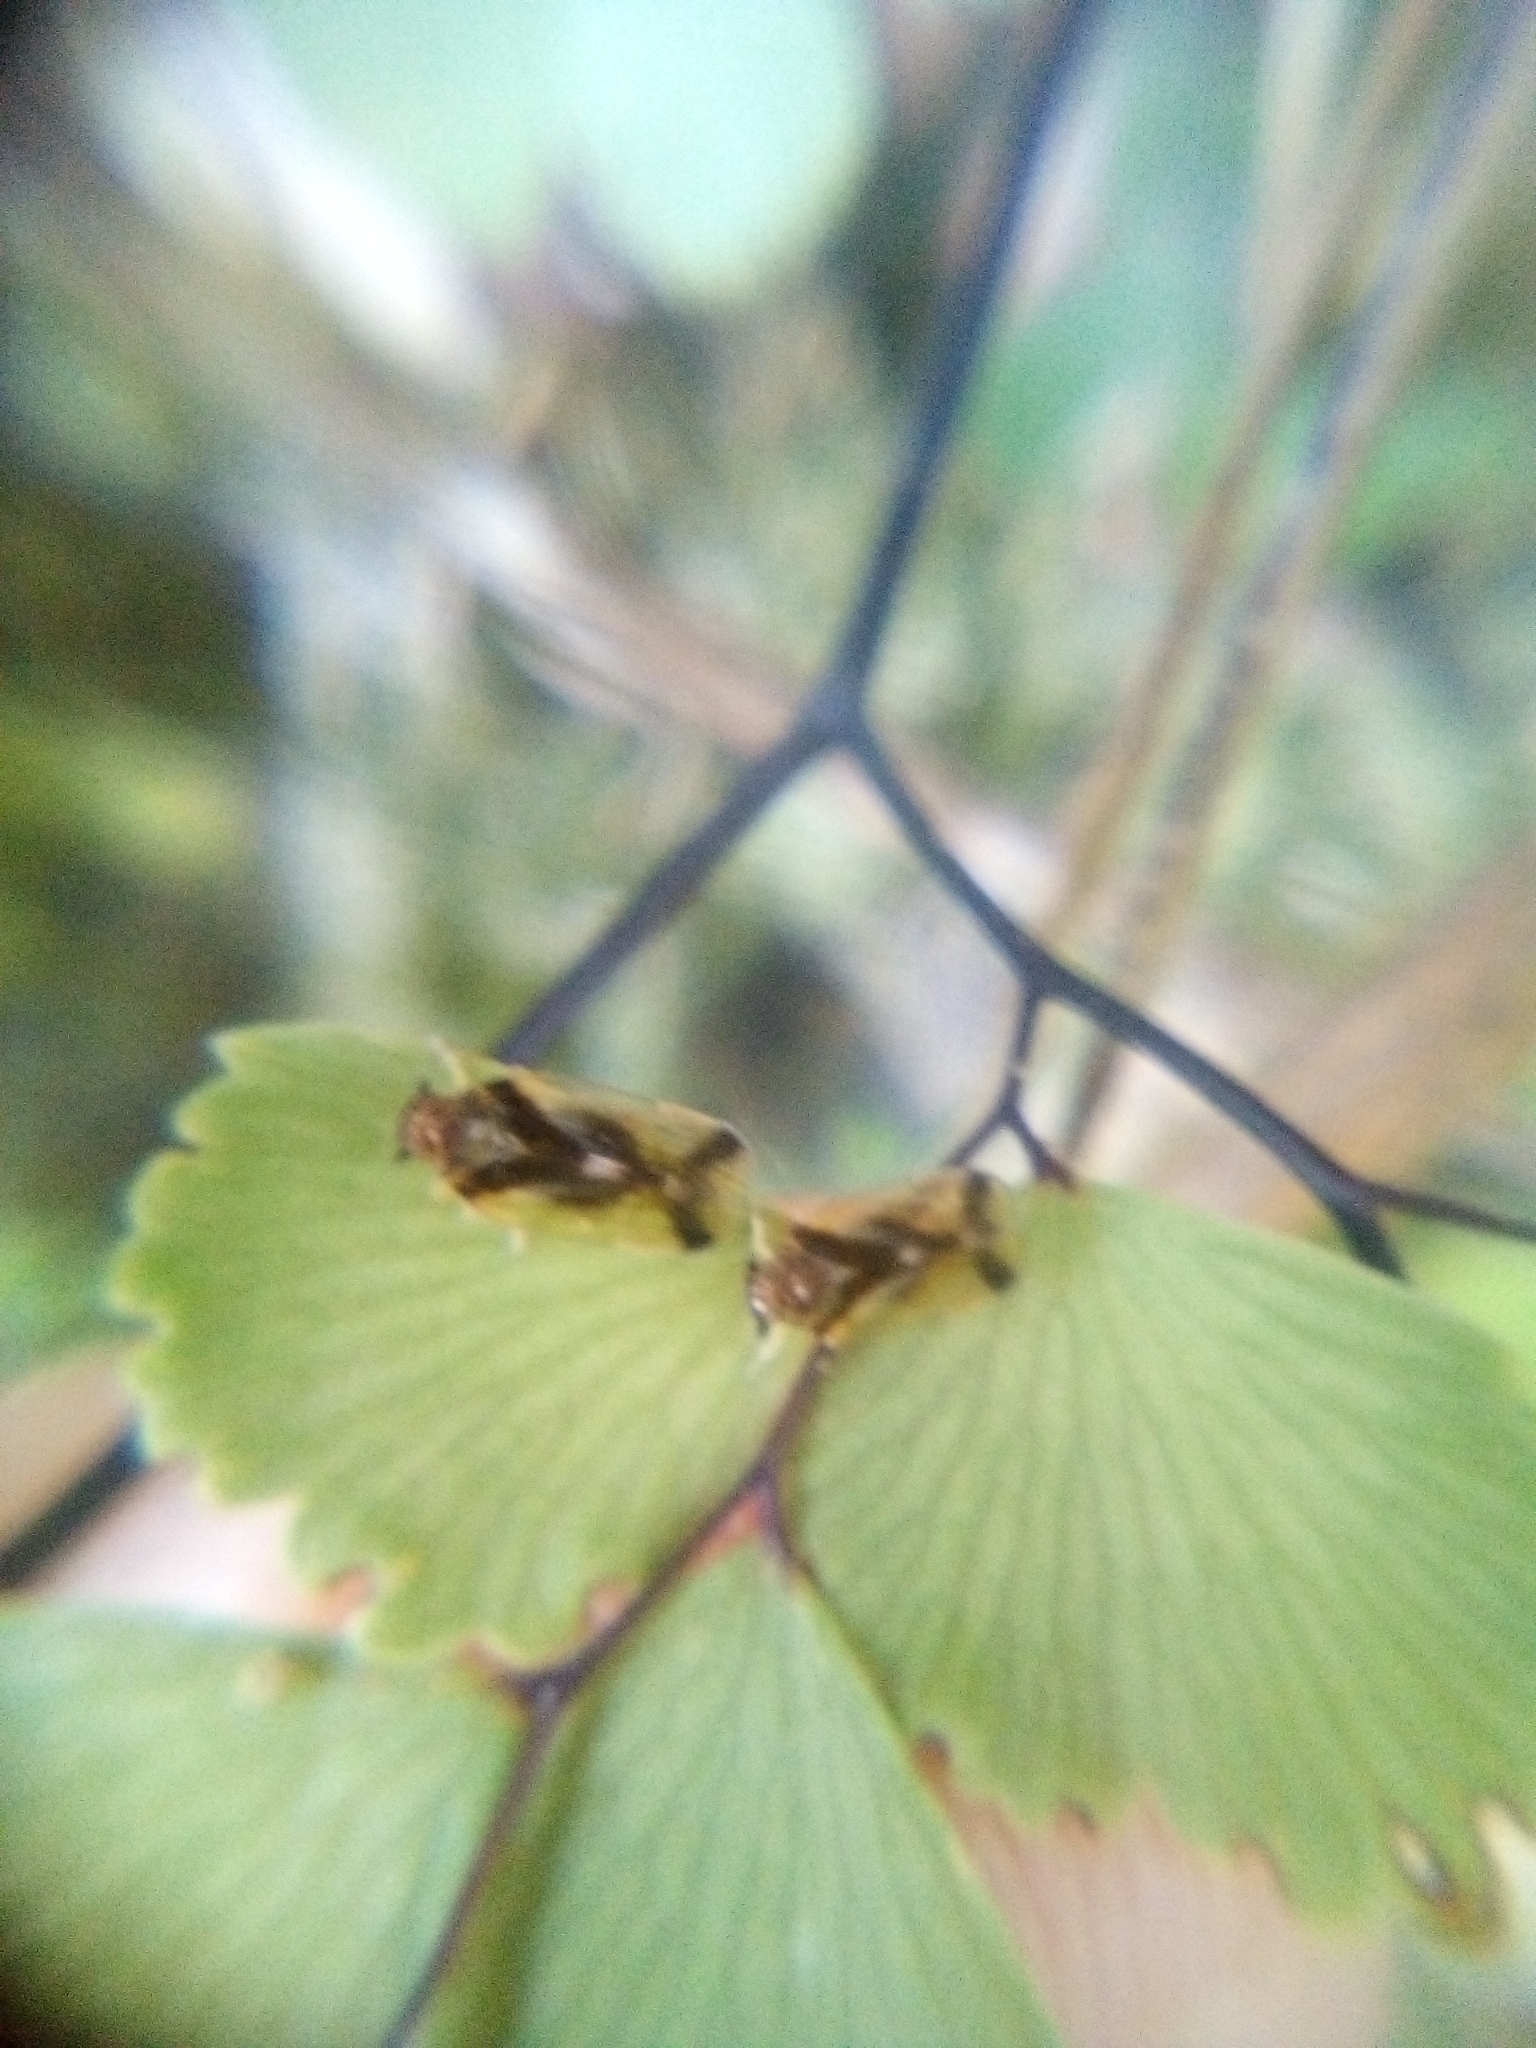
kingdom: Animalia
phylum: Arthropoda
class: Insecta
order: Hemiptera
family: Cixiidae
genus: Tiriteana
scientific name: Tiriteana clarkei
